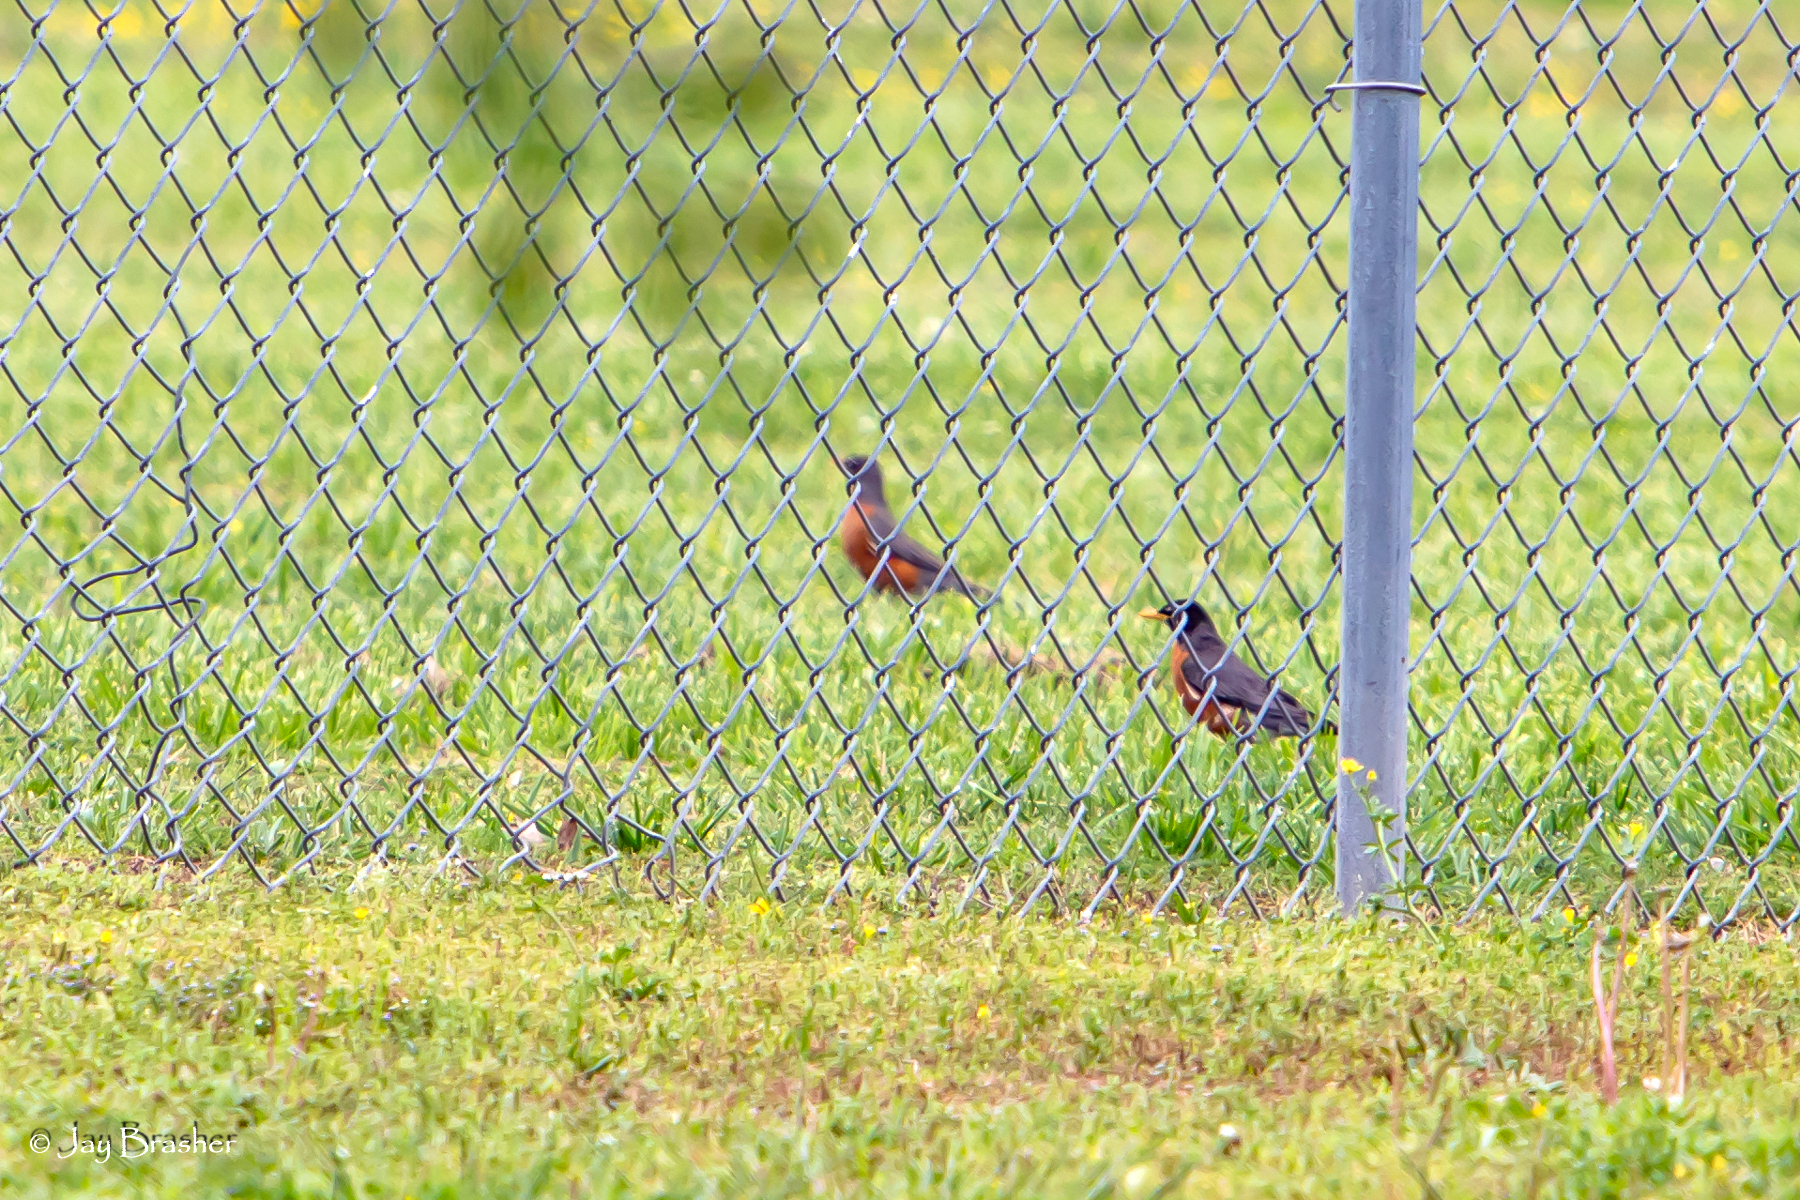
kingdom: Animalia
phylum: Chordata
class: Aves
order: Passeriformes
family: Turdidae
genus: Turdus
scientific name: Turdus migratorius
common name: American robin
